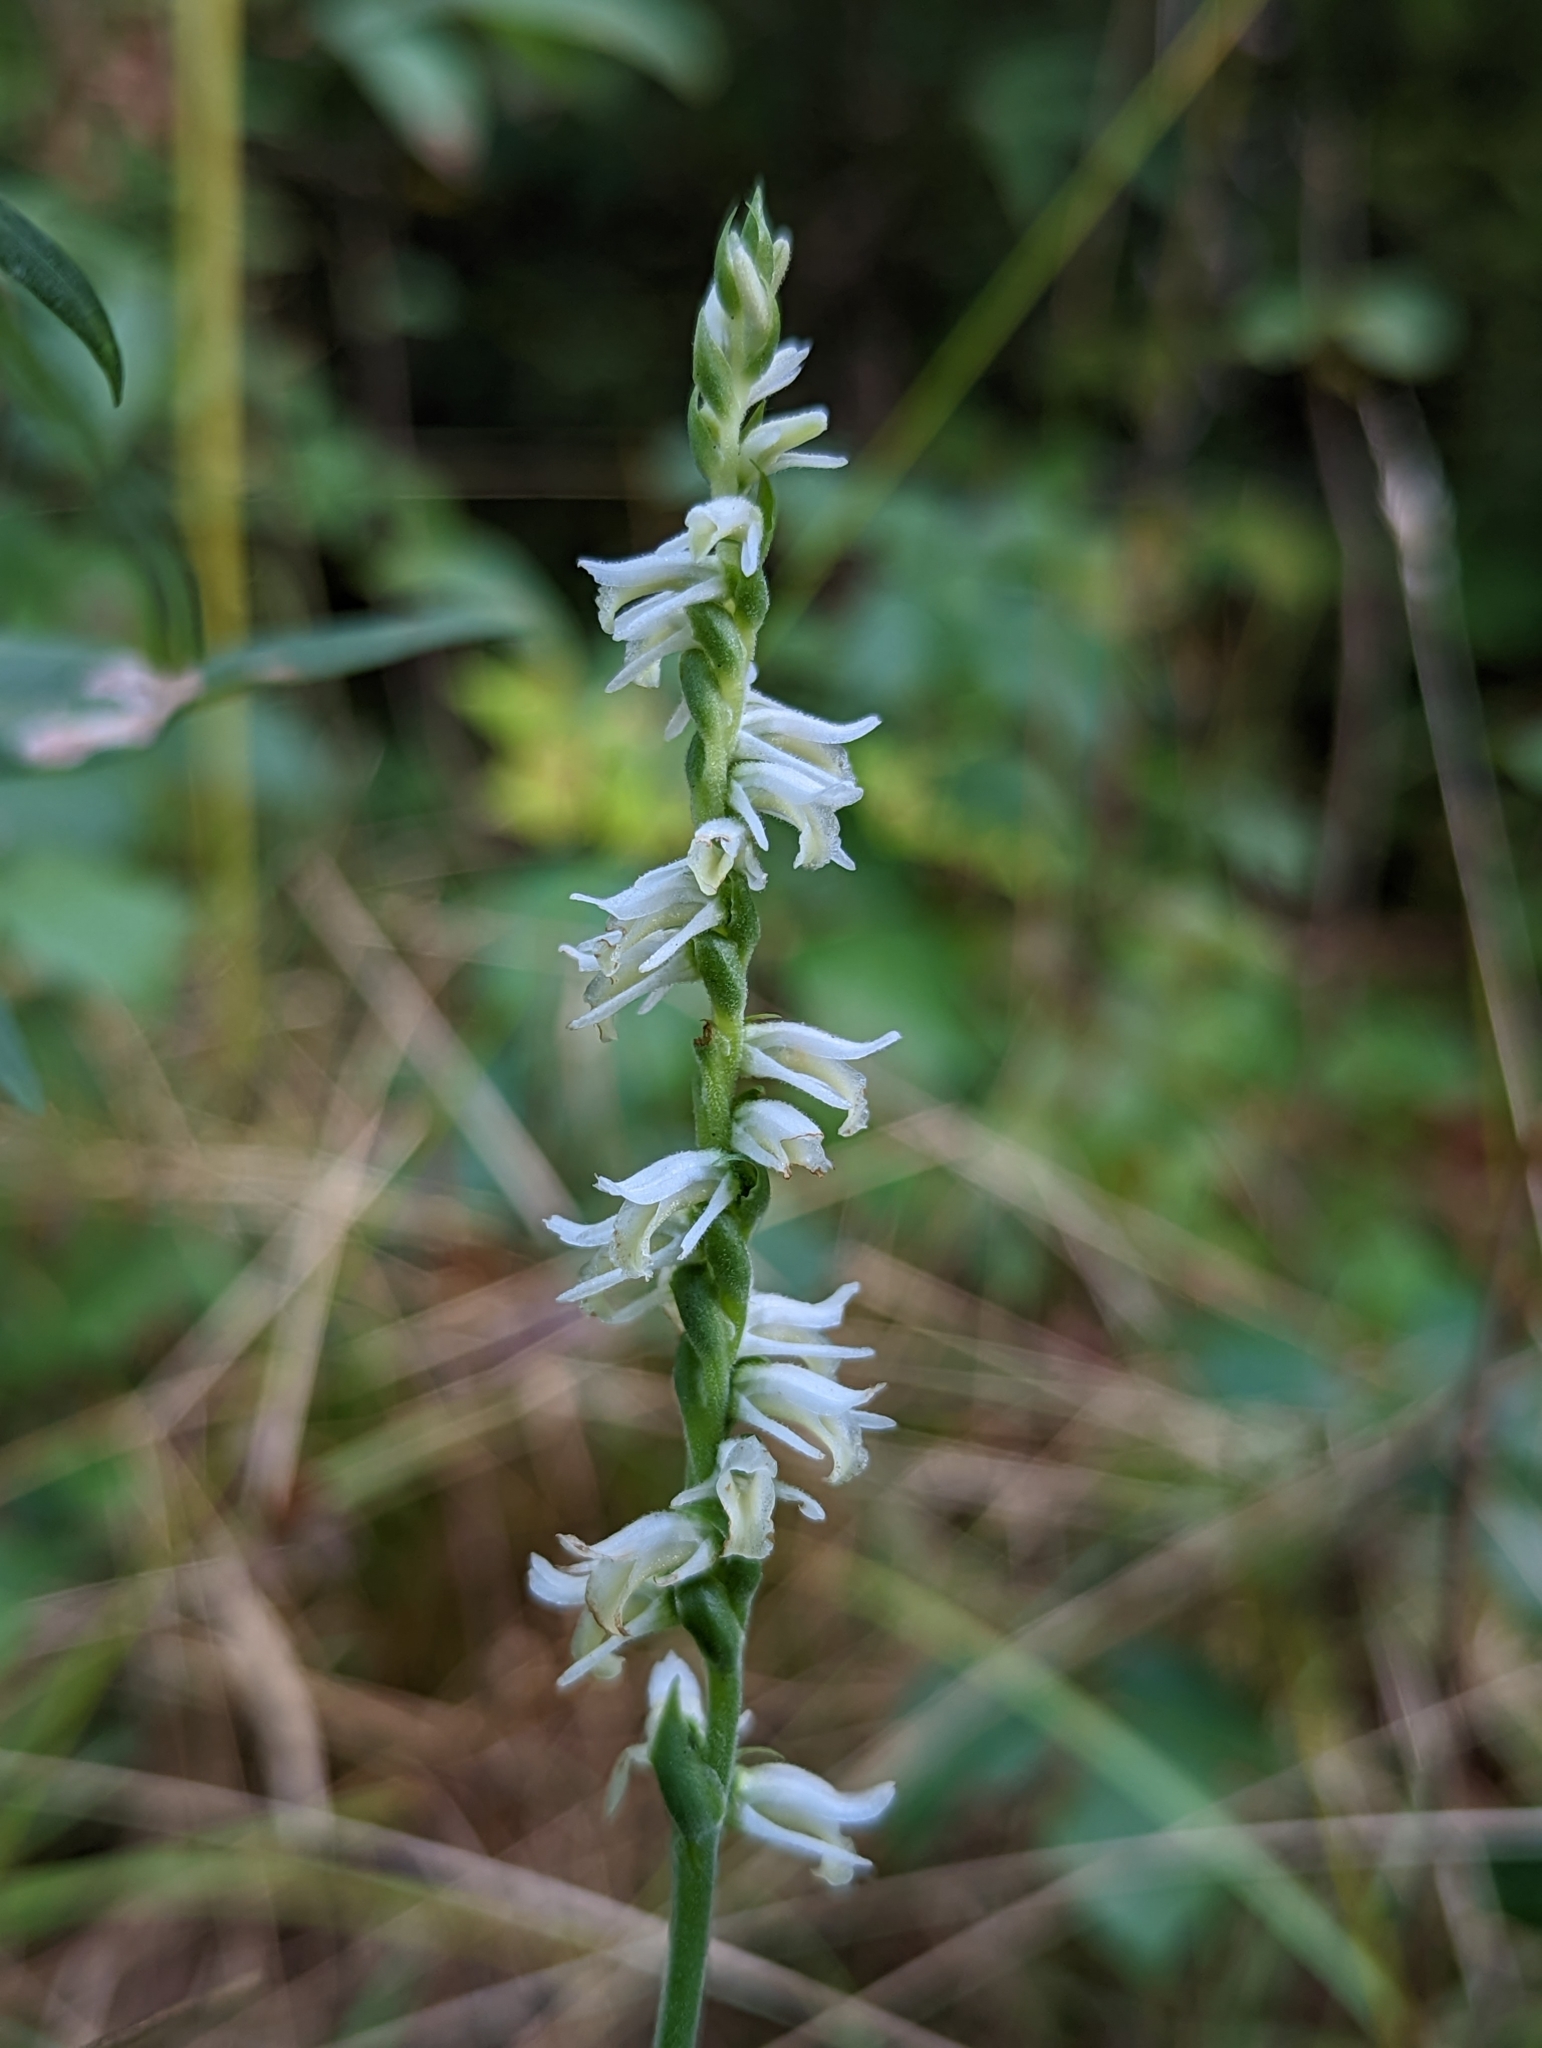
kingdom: Plantae
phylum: Tracheophyta
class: Liliopsida
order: Asparagales
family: Orchidaceae
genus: Spiranthes
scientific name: Spiranthes vernalis
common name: Spring ladies'-tresses
